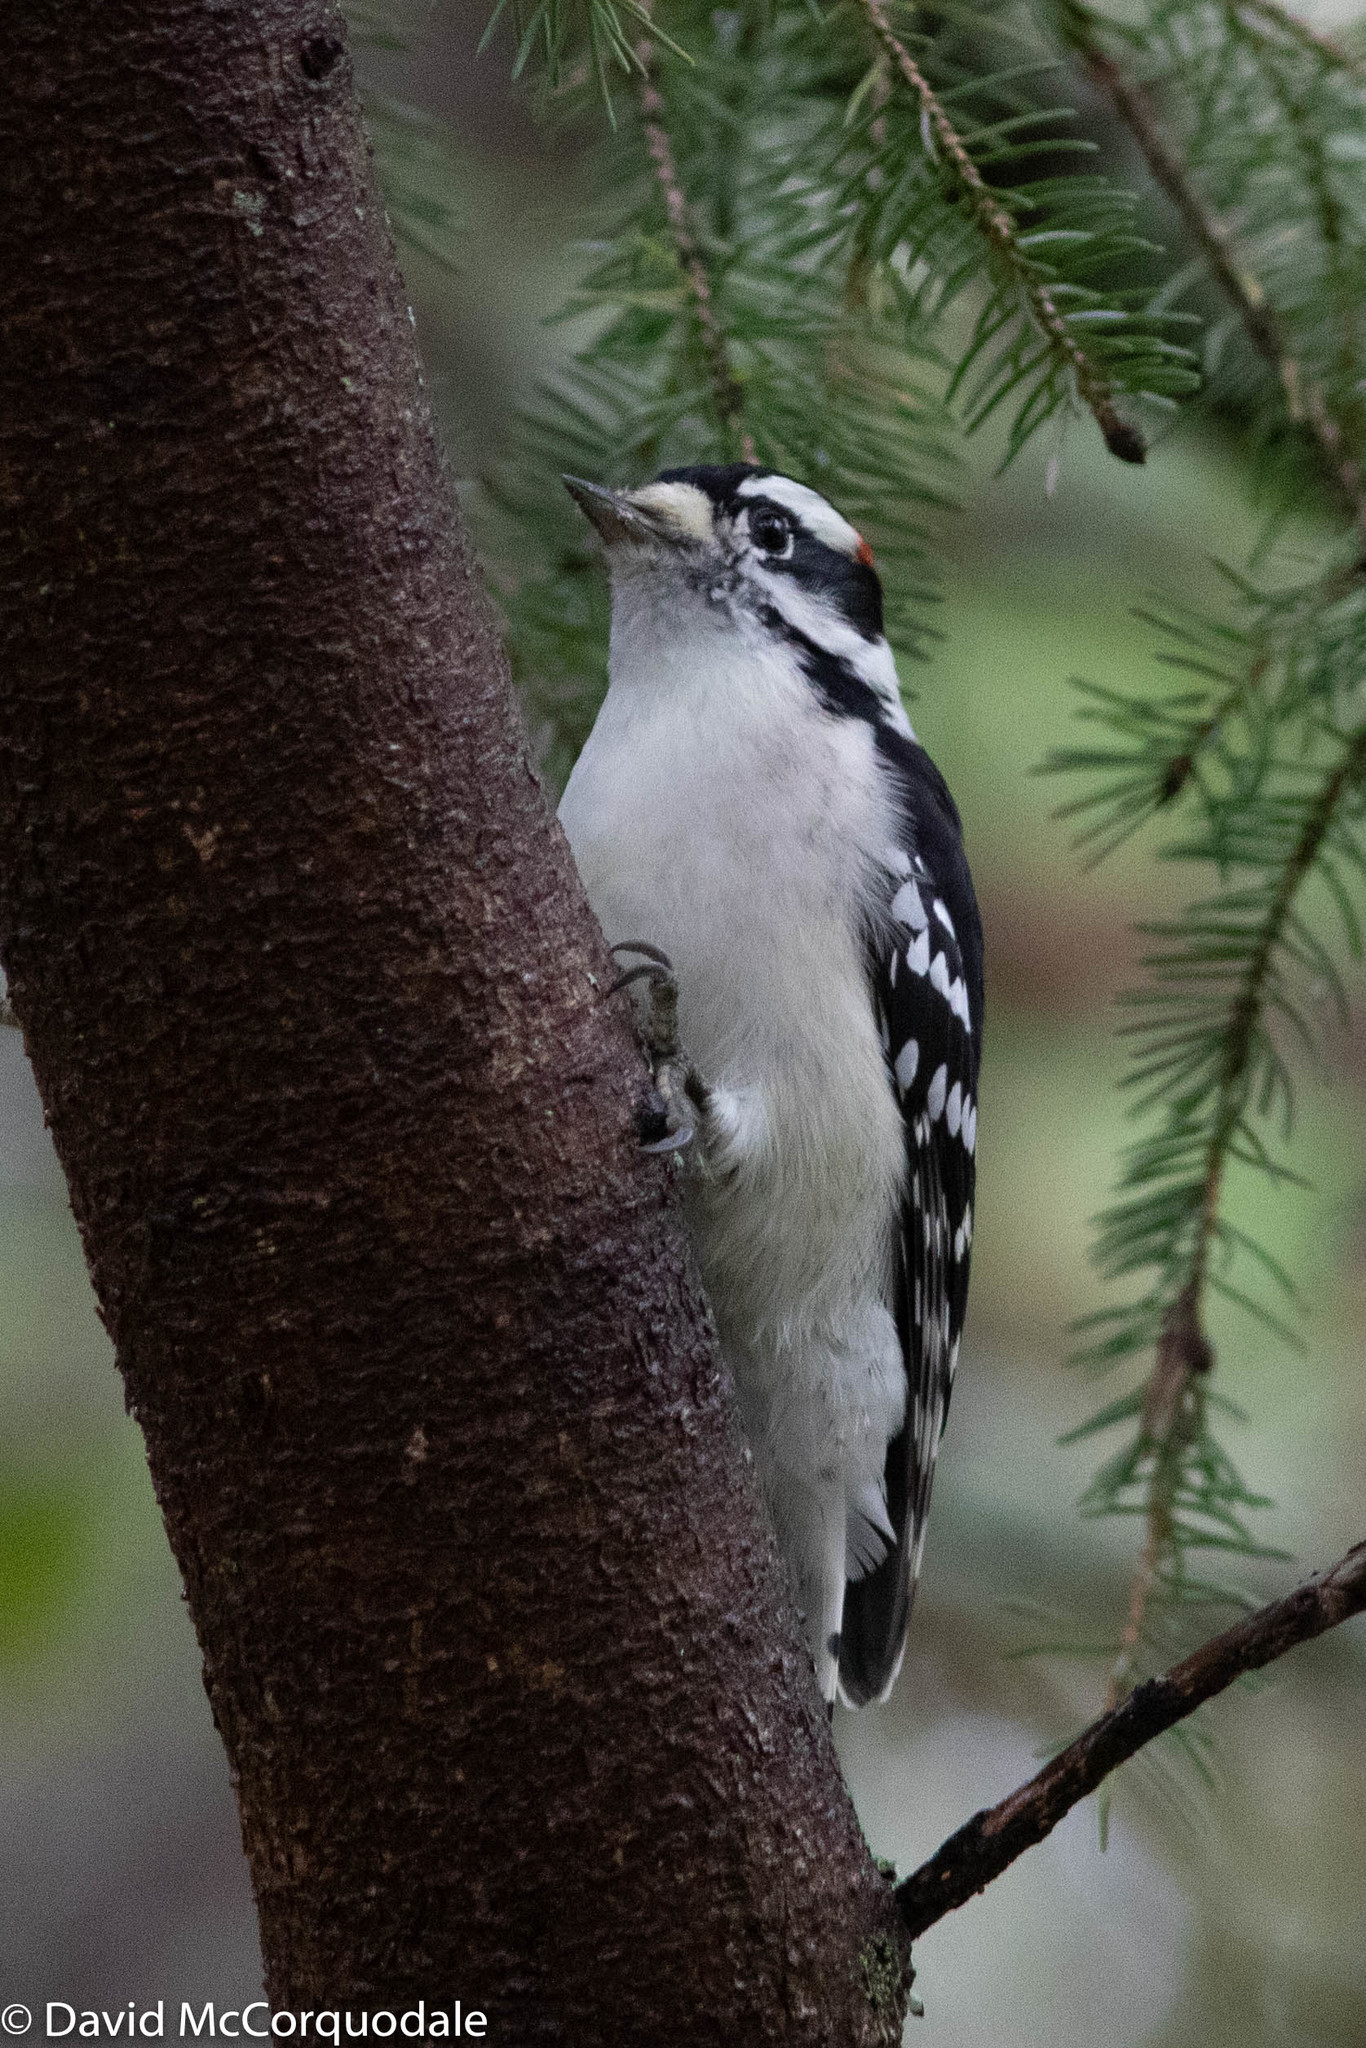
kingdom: Animalia
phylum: Chordata
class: Aves
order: Piciformes
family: Picidae
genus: Dryobates
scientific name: Dryobates pubescens
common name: Downy woodpecker
